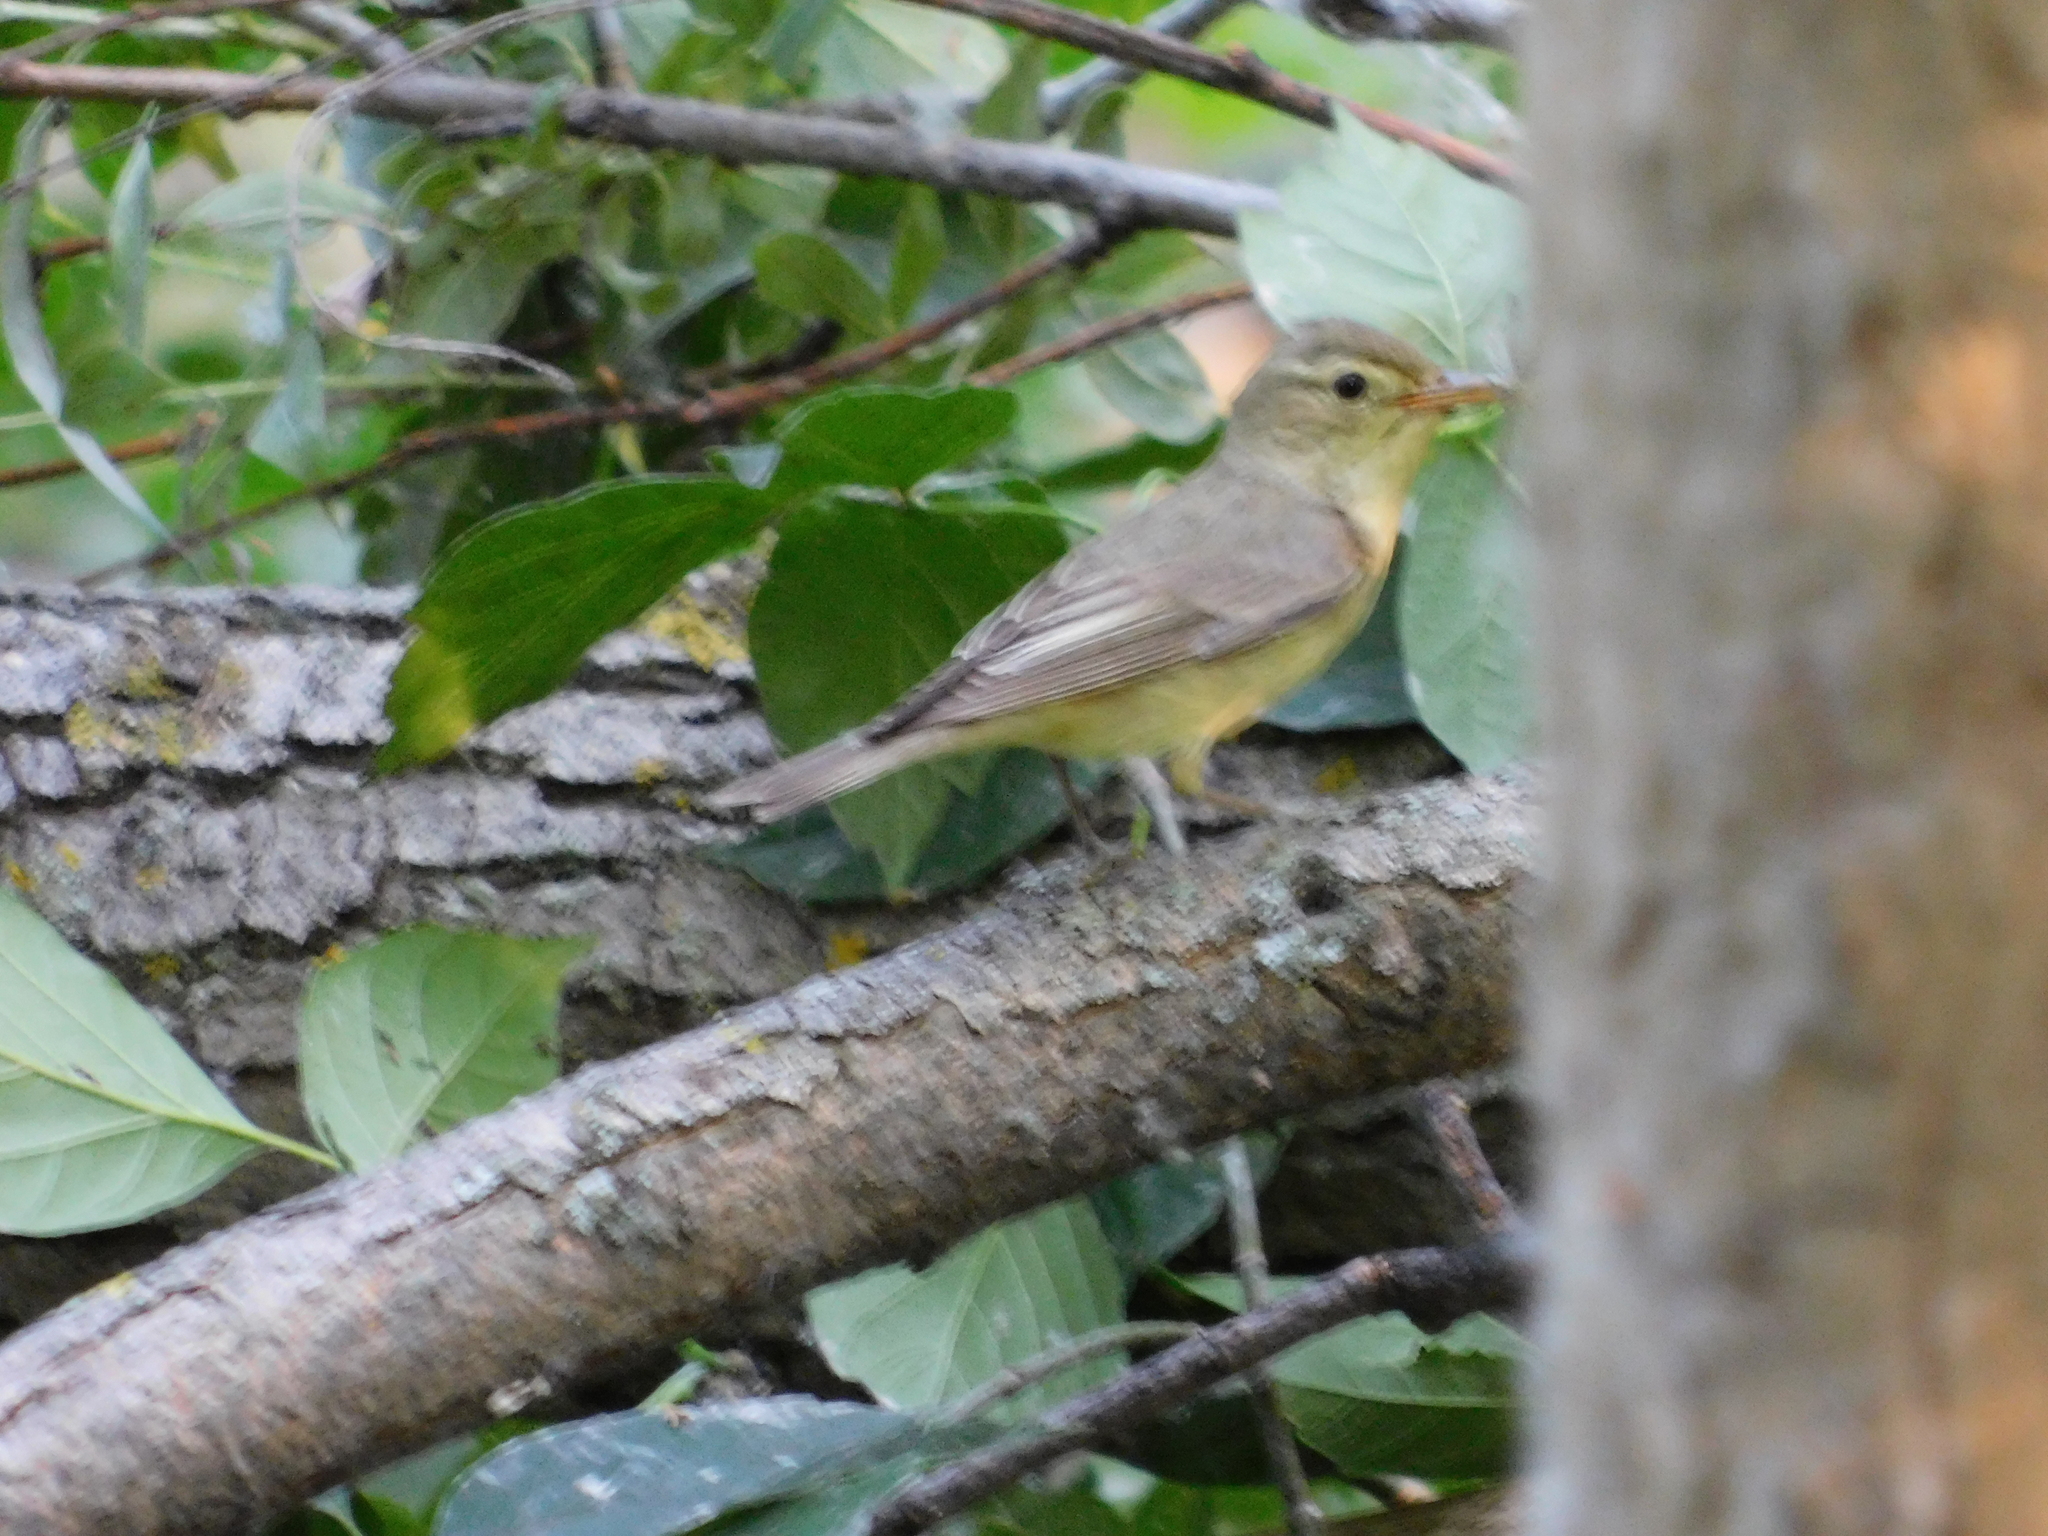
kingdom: Animalia
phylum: Chordata
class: Aves
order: Passeriformes
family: Acrocephalidae
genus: Hippolais
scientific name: Hippolais icterina
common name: Icterine warbler
